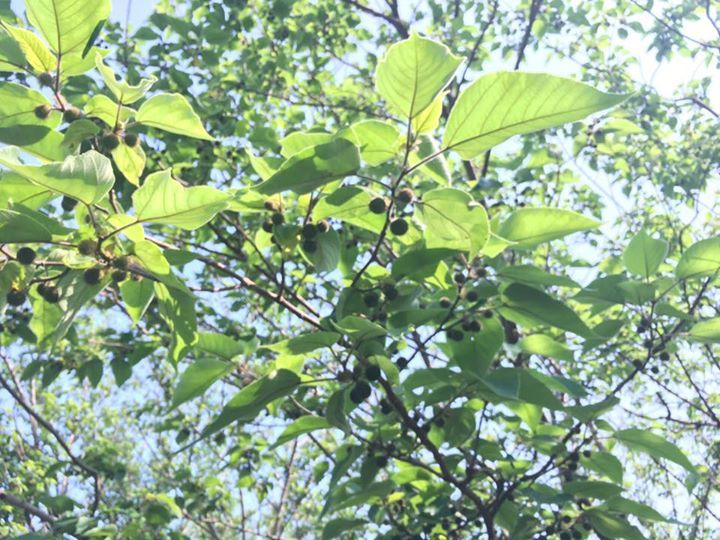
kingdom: Plantae
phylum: Tracheophyta
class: Magnoliopsida
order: Rosales
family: Moraceae
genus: Broussonetia
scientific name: Broussonetia papyrifera
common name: Paper mulberry
